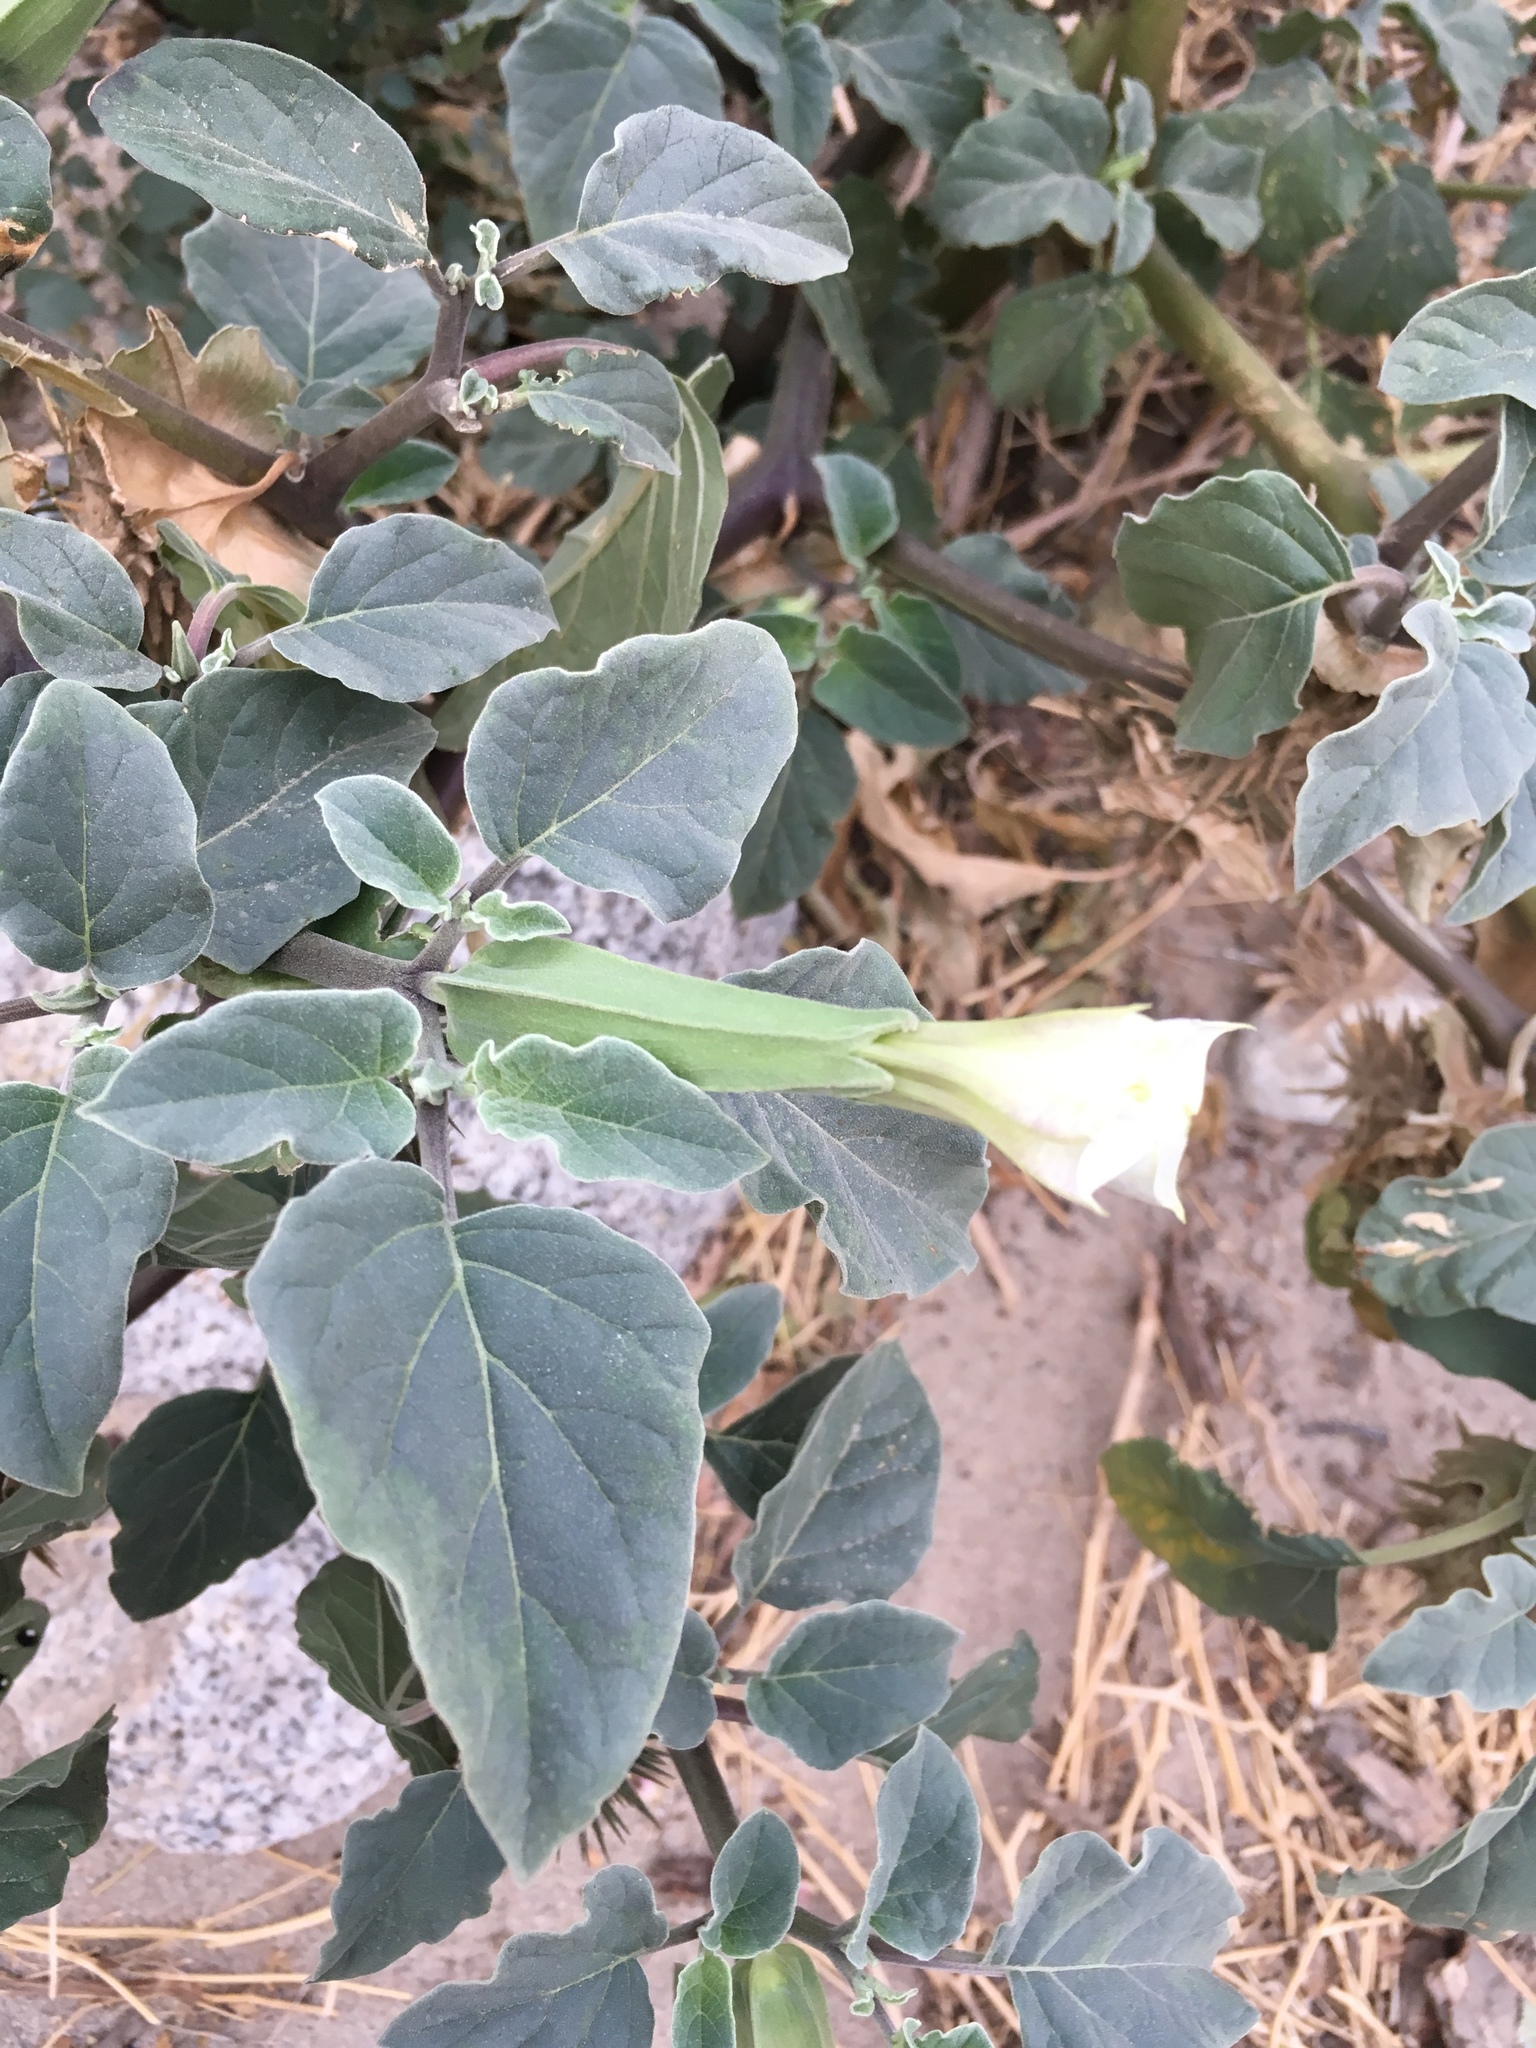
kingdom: Plantae
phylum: Tracheophyta
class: Magnoliopsida
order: Solanales
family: Solanaceae
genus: Datura
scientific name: Datura discolor
